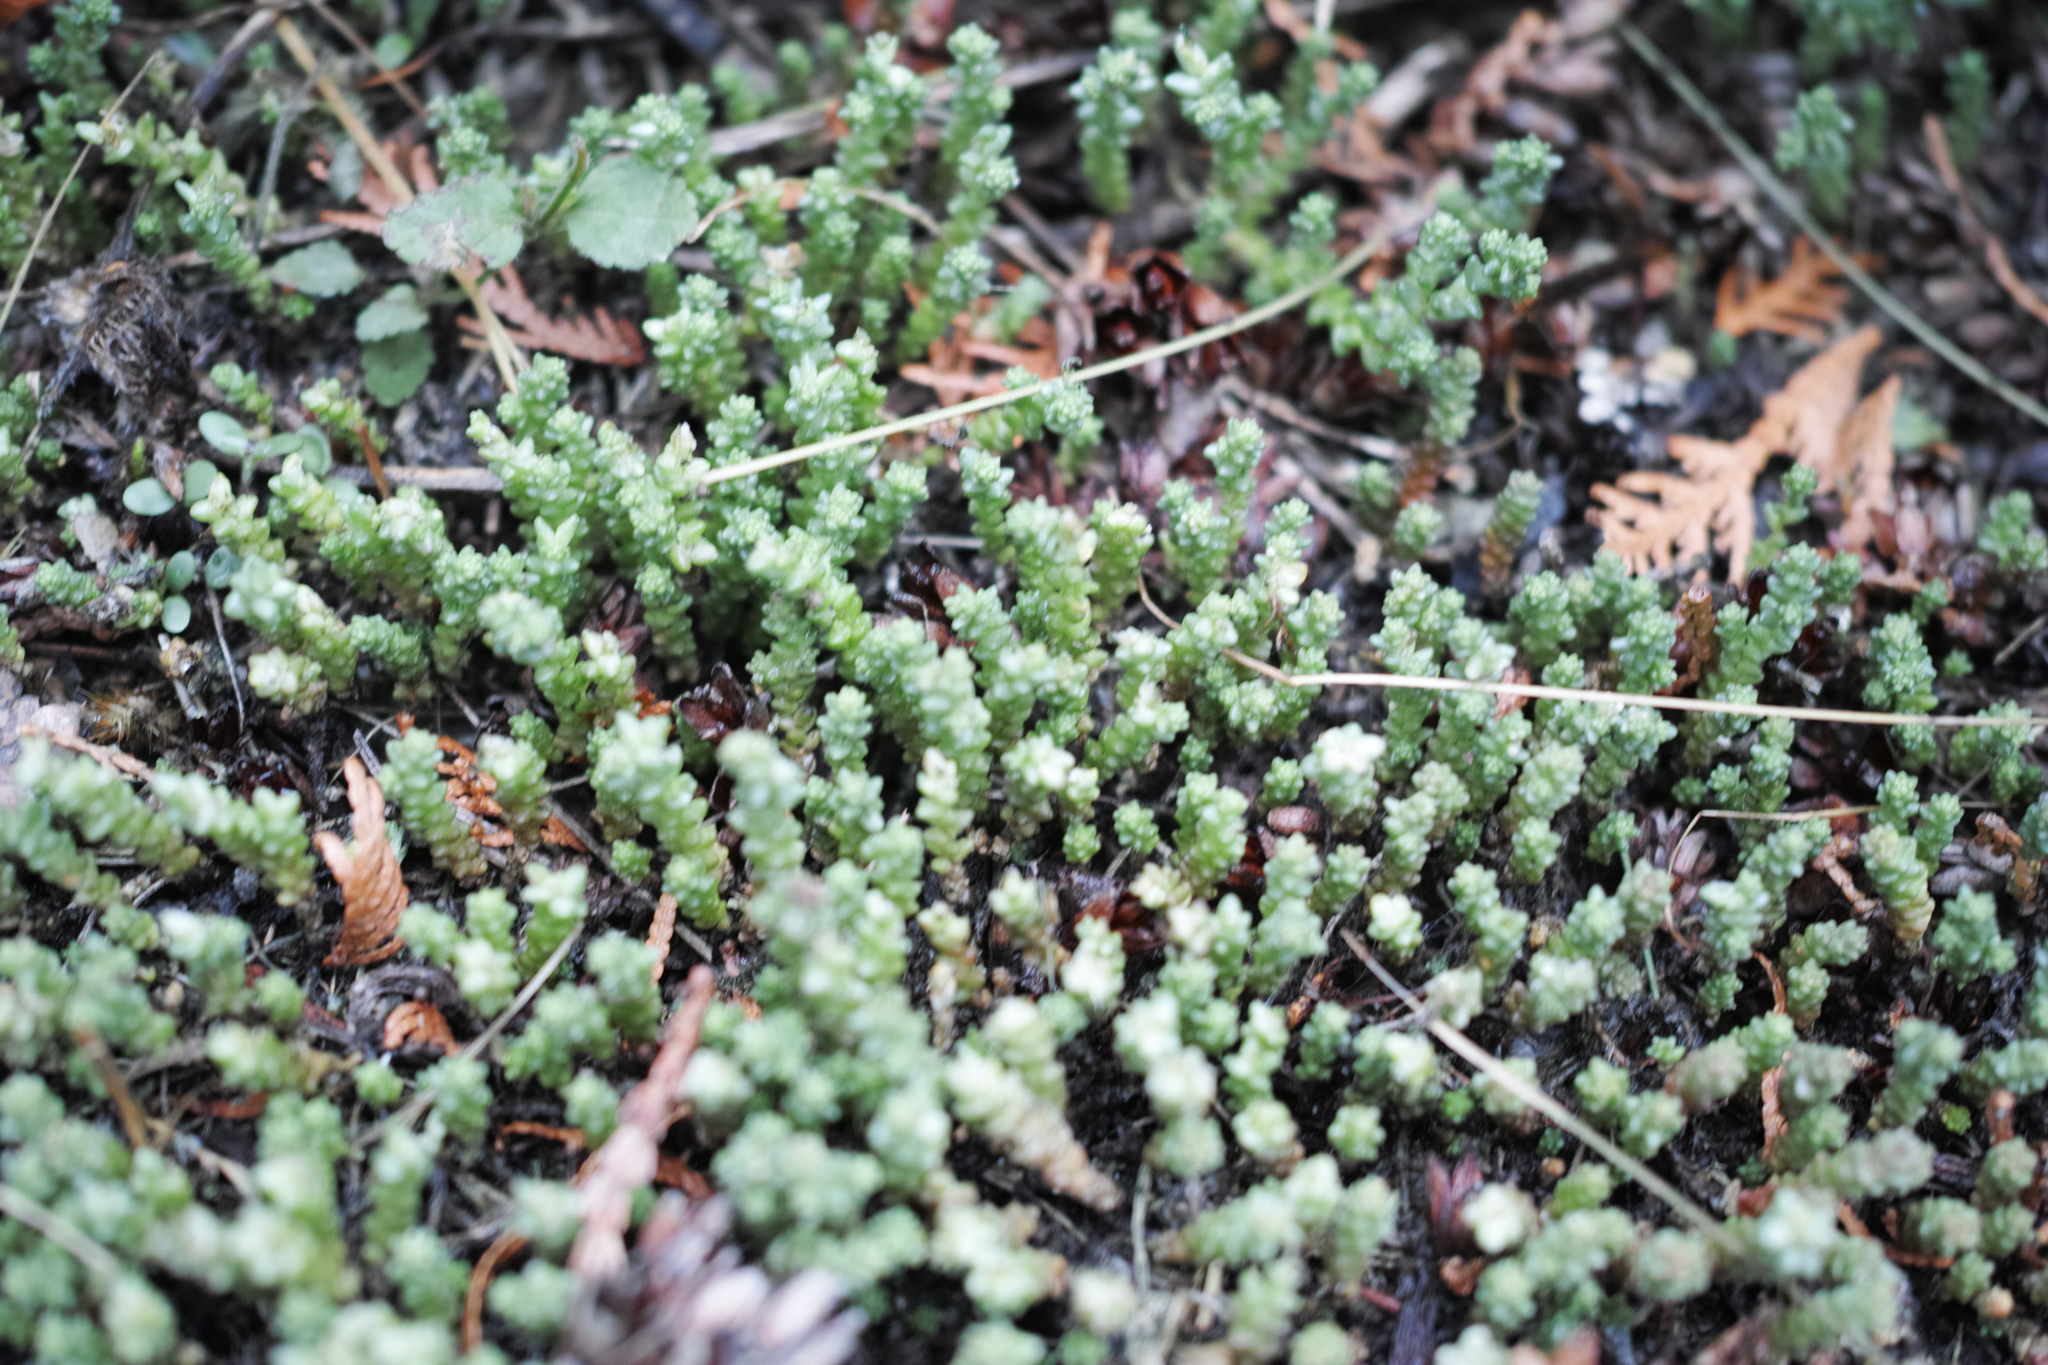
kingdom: Plantae
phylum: Tracheophyta
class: Magnoliopsida
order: Saxifragales
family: Crassulaceae
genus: Sedum
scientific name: Sedum acre
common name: Biting stonecrop
